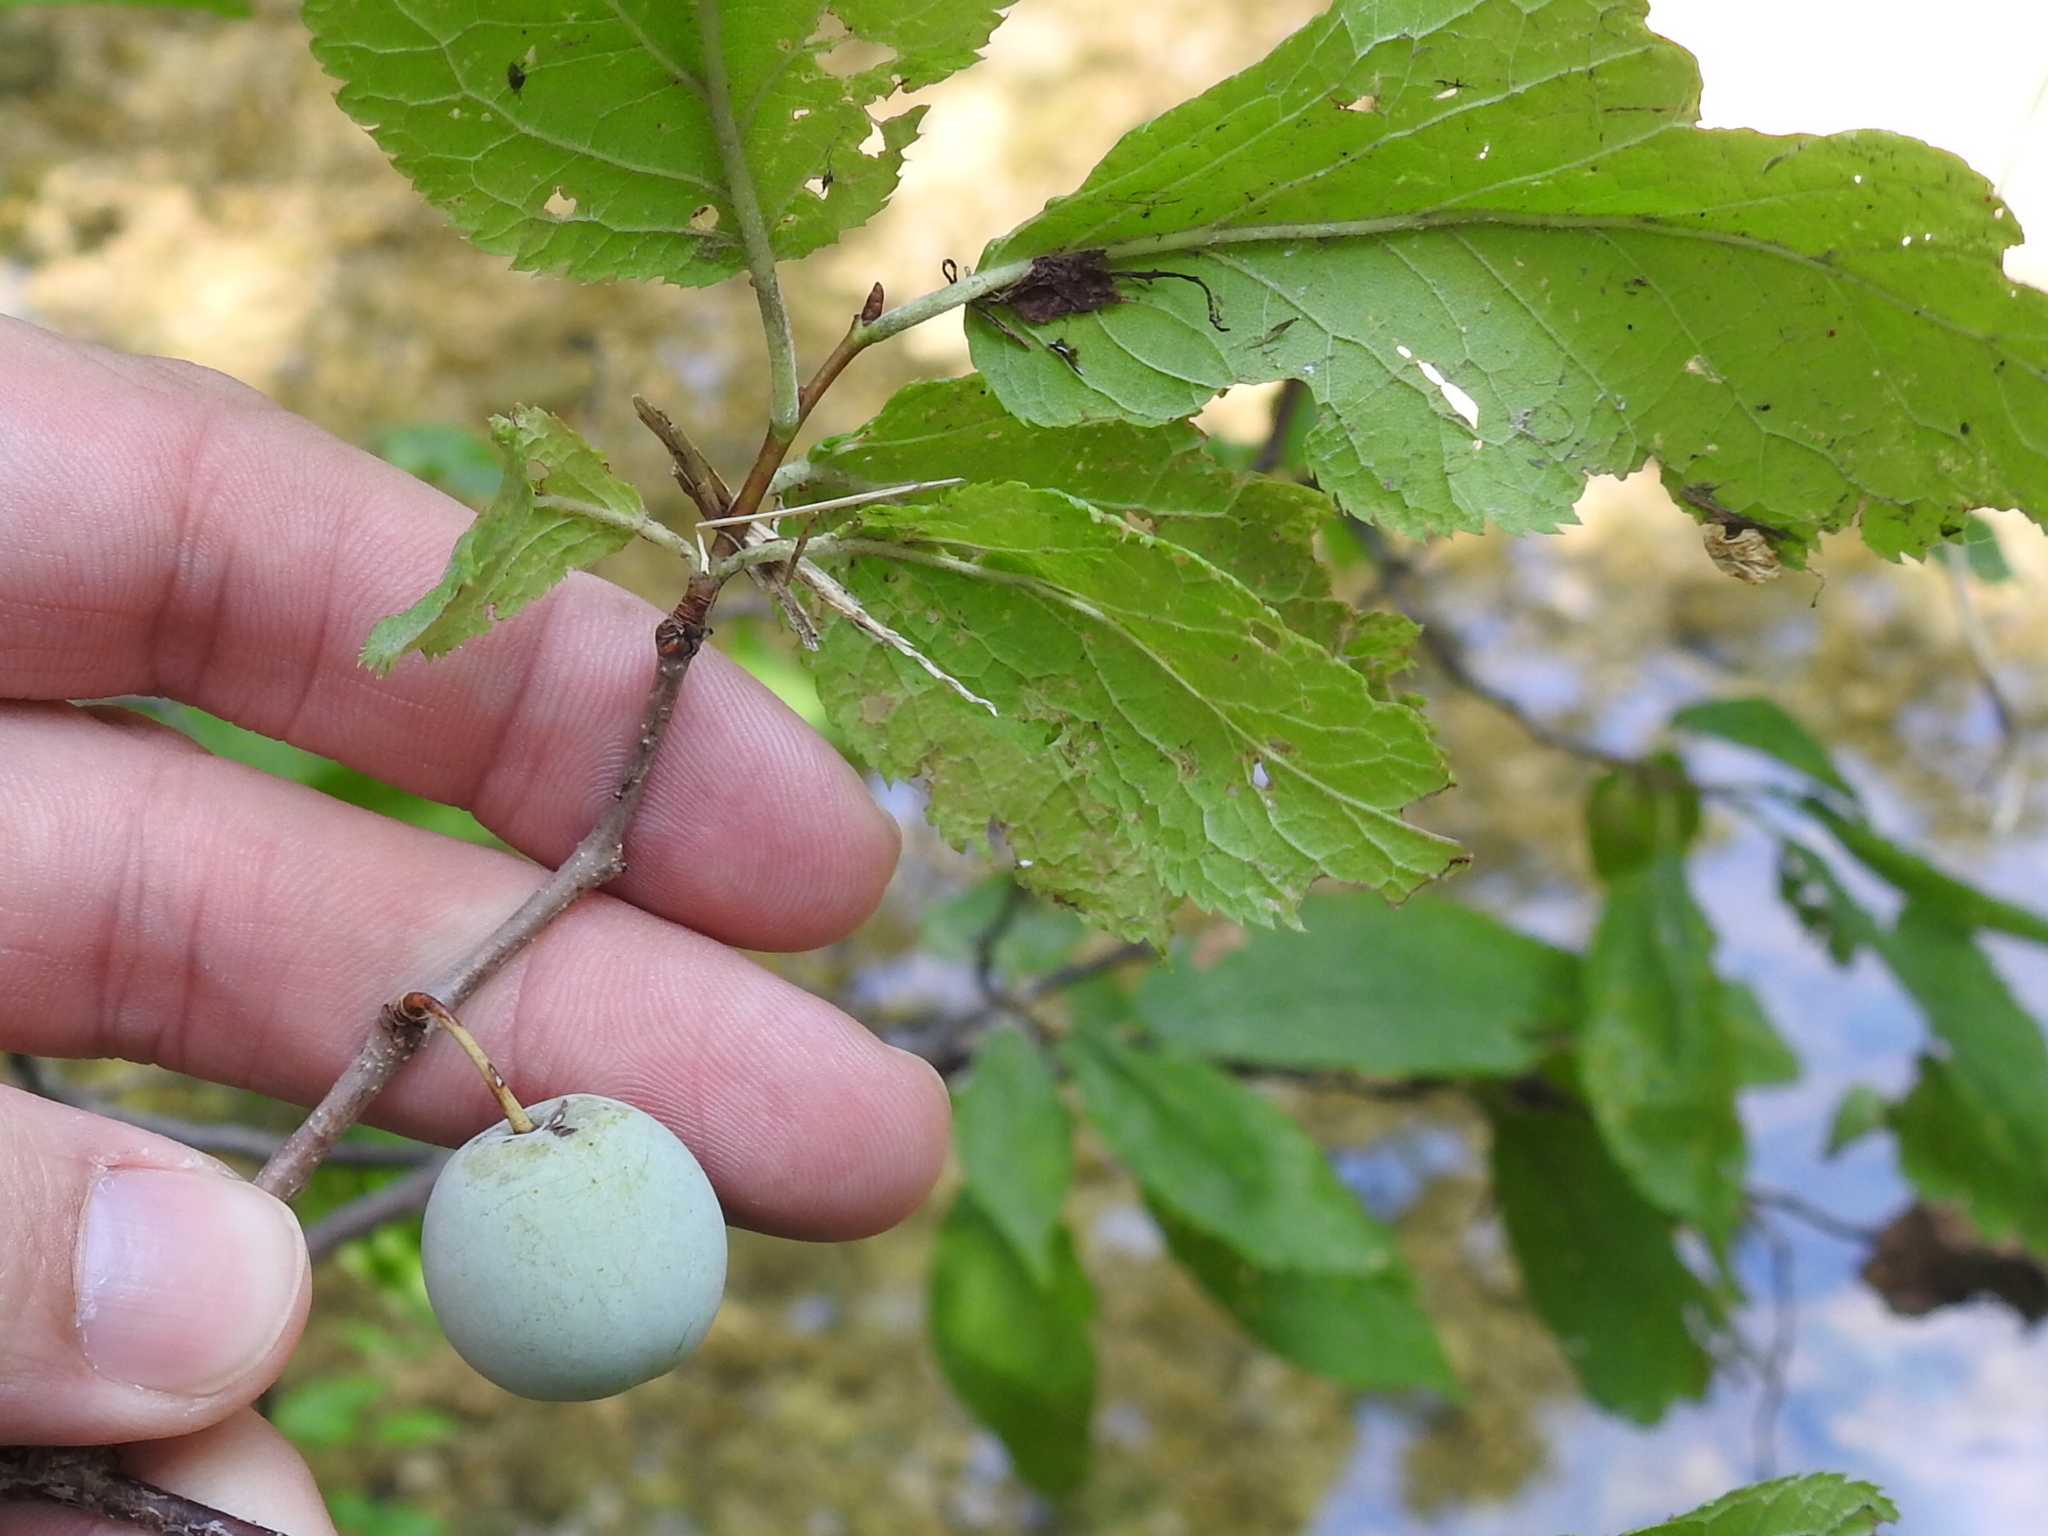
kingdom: Plantae
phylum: Tracheophyta
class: Magnoliopsida
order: Rosales
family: Rosaceae
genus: Prunus
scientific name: Prunus mexicana
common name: Mexican plum
